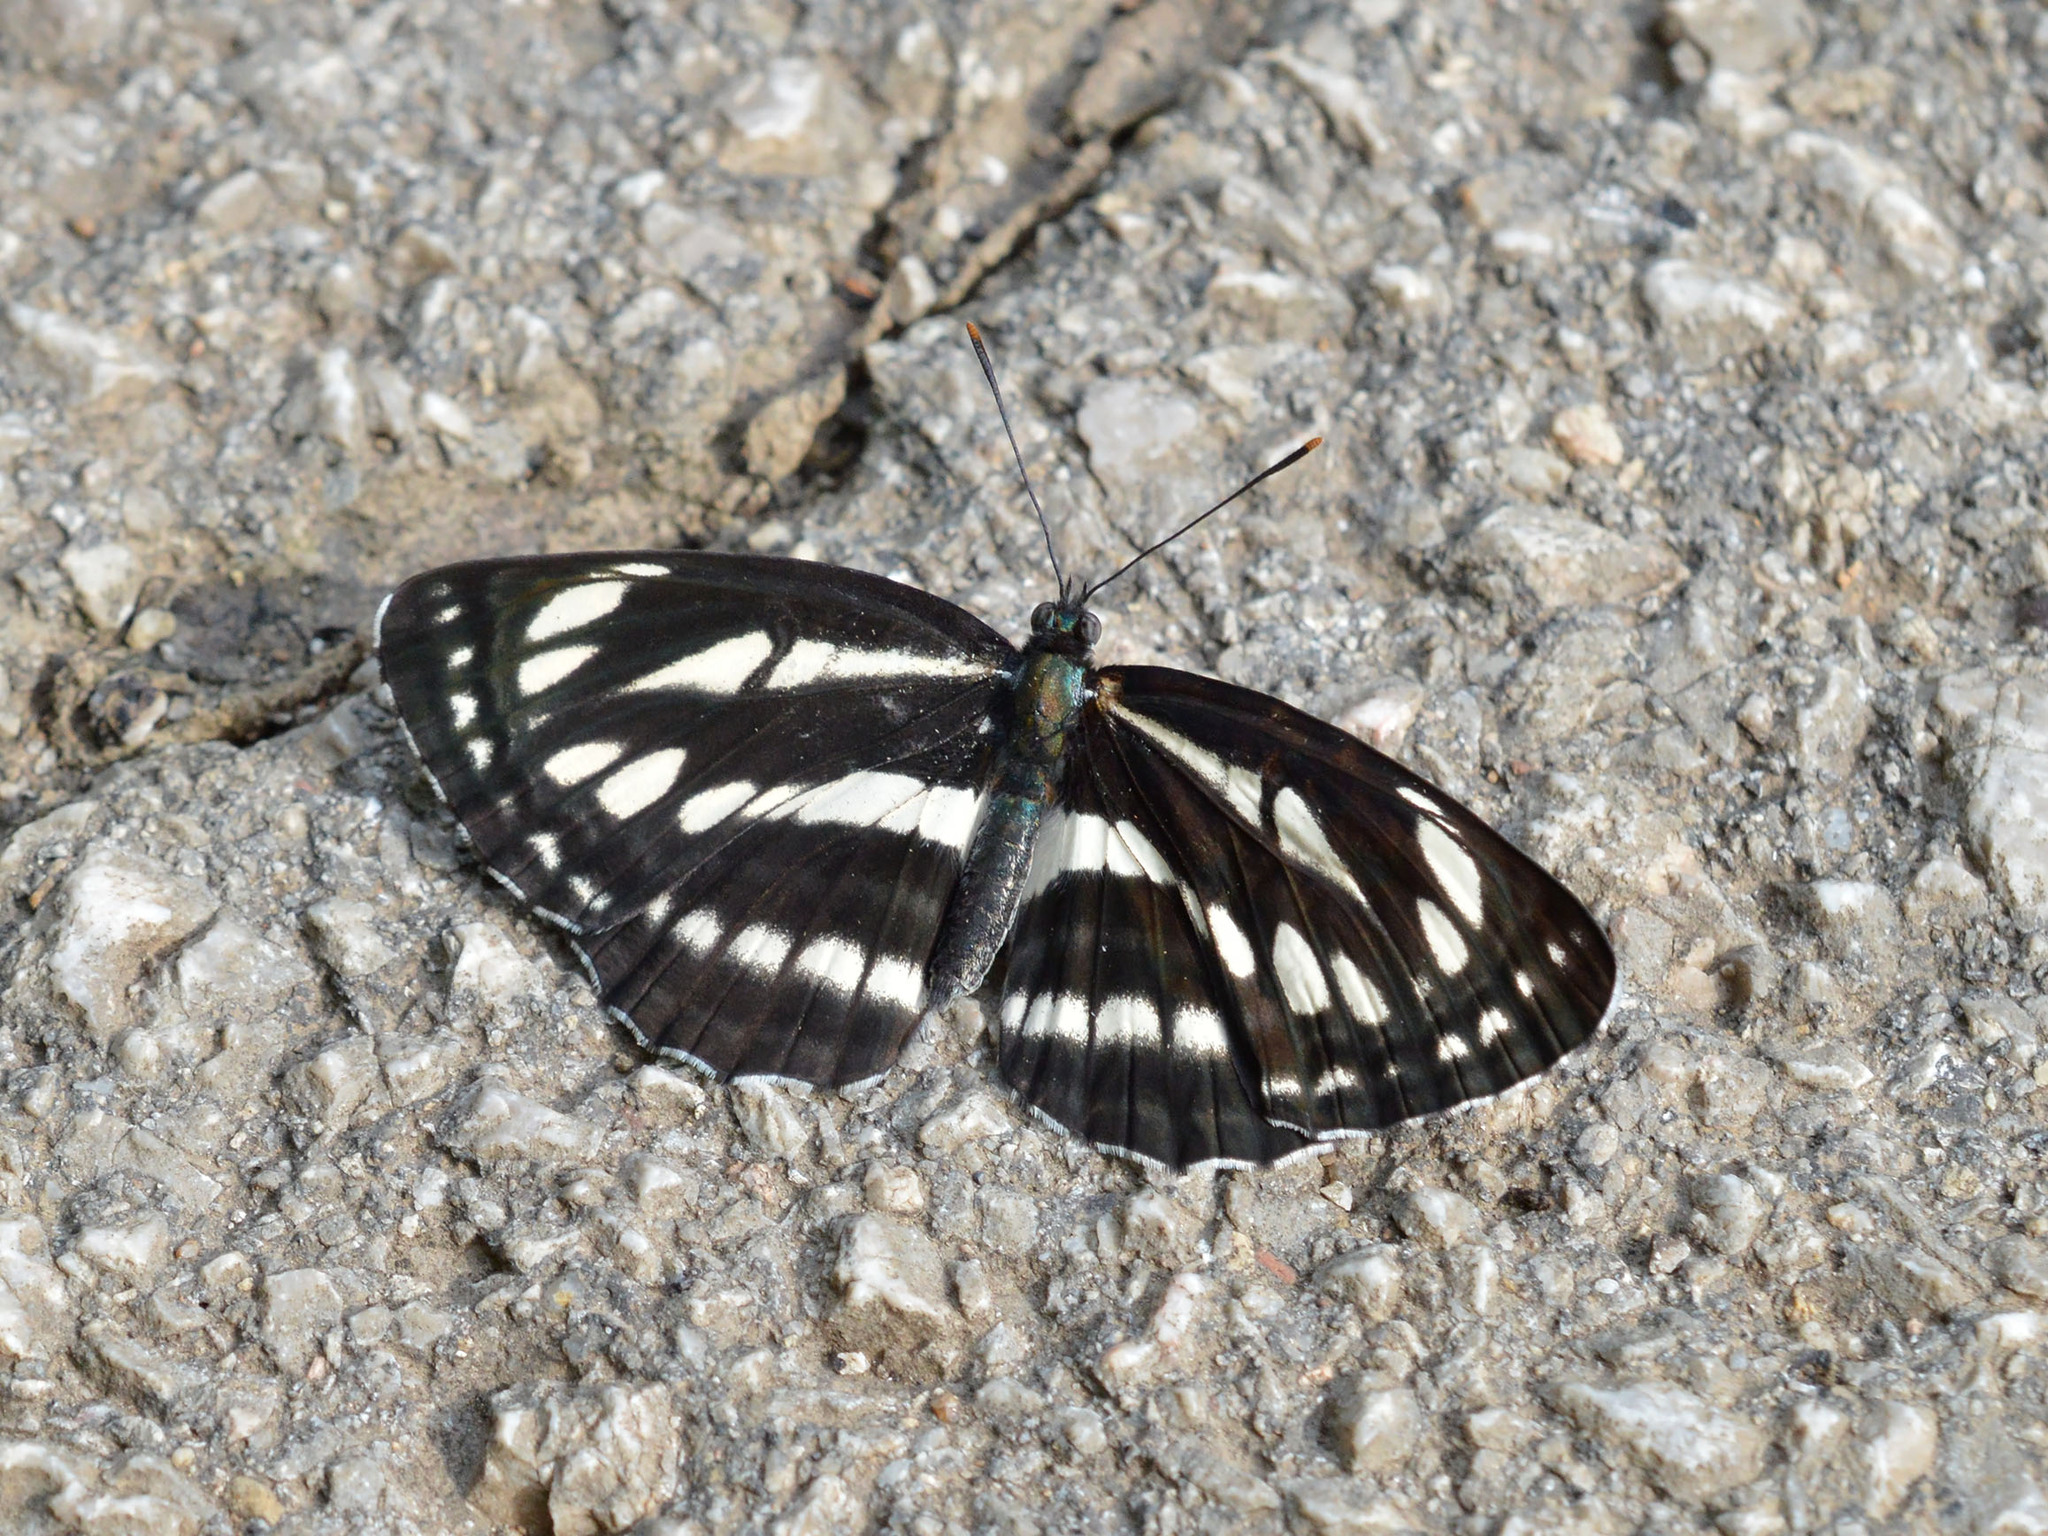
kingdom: Animalia
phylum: Arthropoda
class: Insecta
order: Lepidoptera
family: Nymphalidae
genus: Neptis
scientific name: Neptis sappho
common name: Common glider
